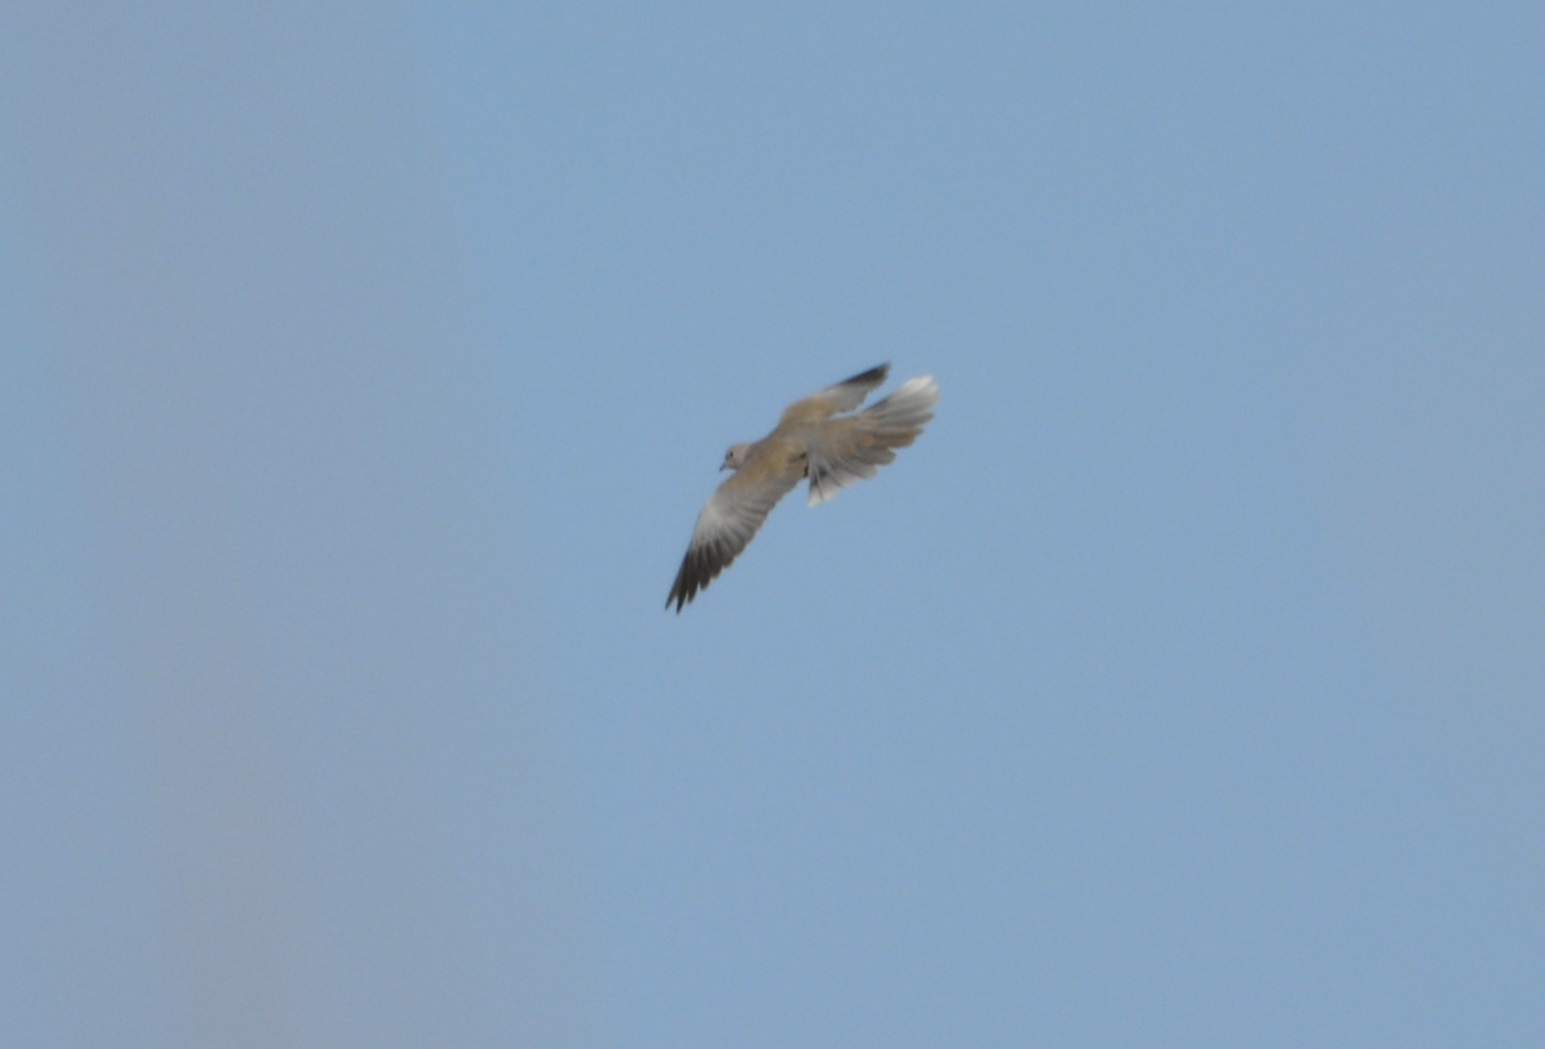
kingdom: Animalia
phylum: Chordata
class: Aves
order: Columbiformes
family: Columbidae
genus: Streptopelia
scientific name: Streptopelia decaocto
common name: Eurasian collared dove
